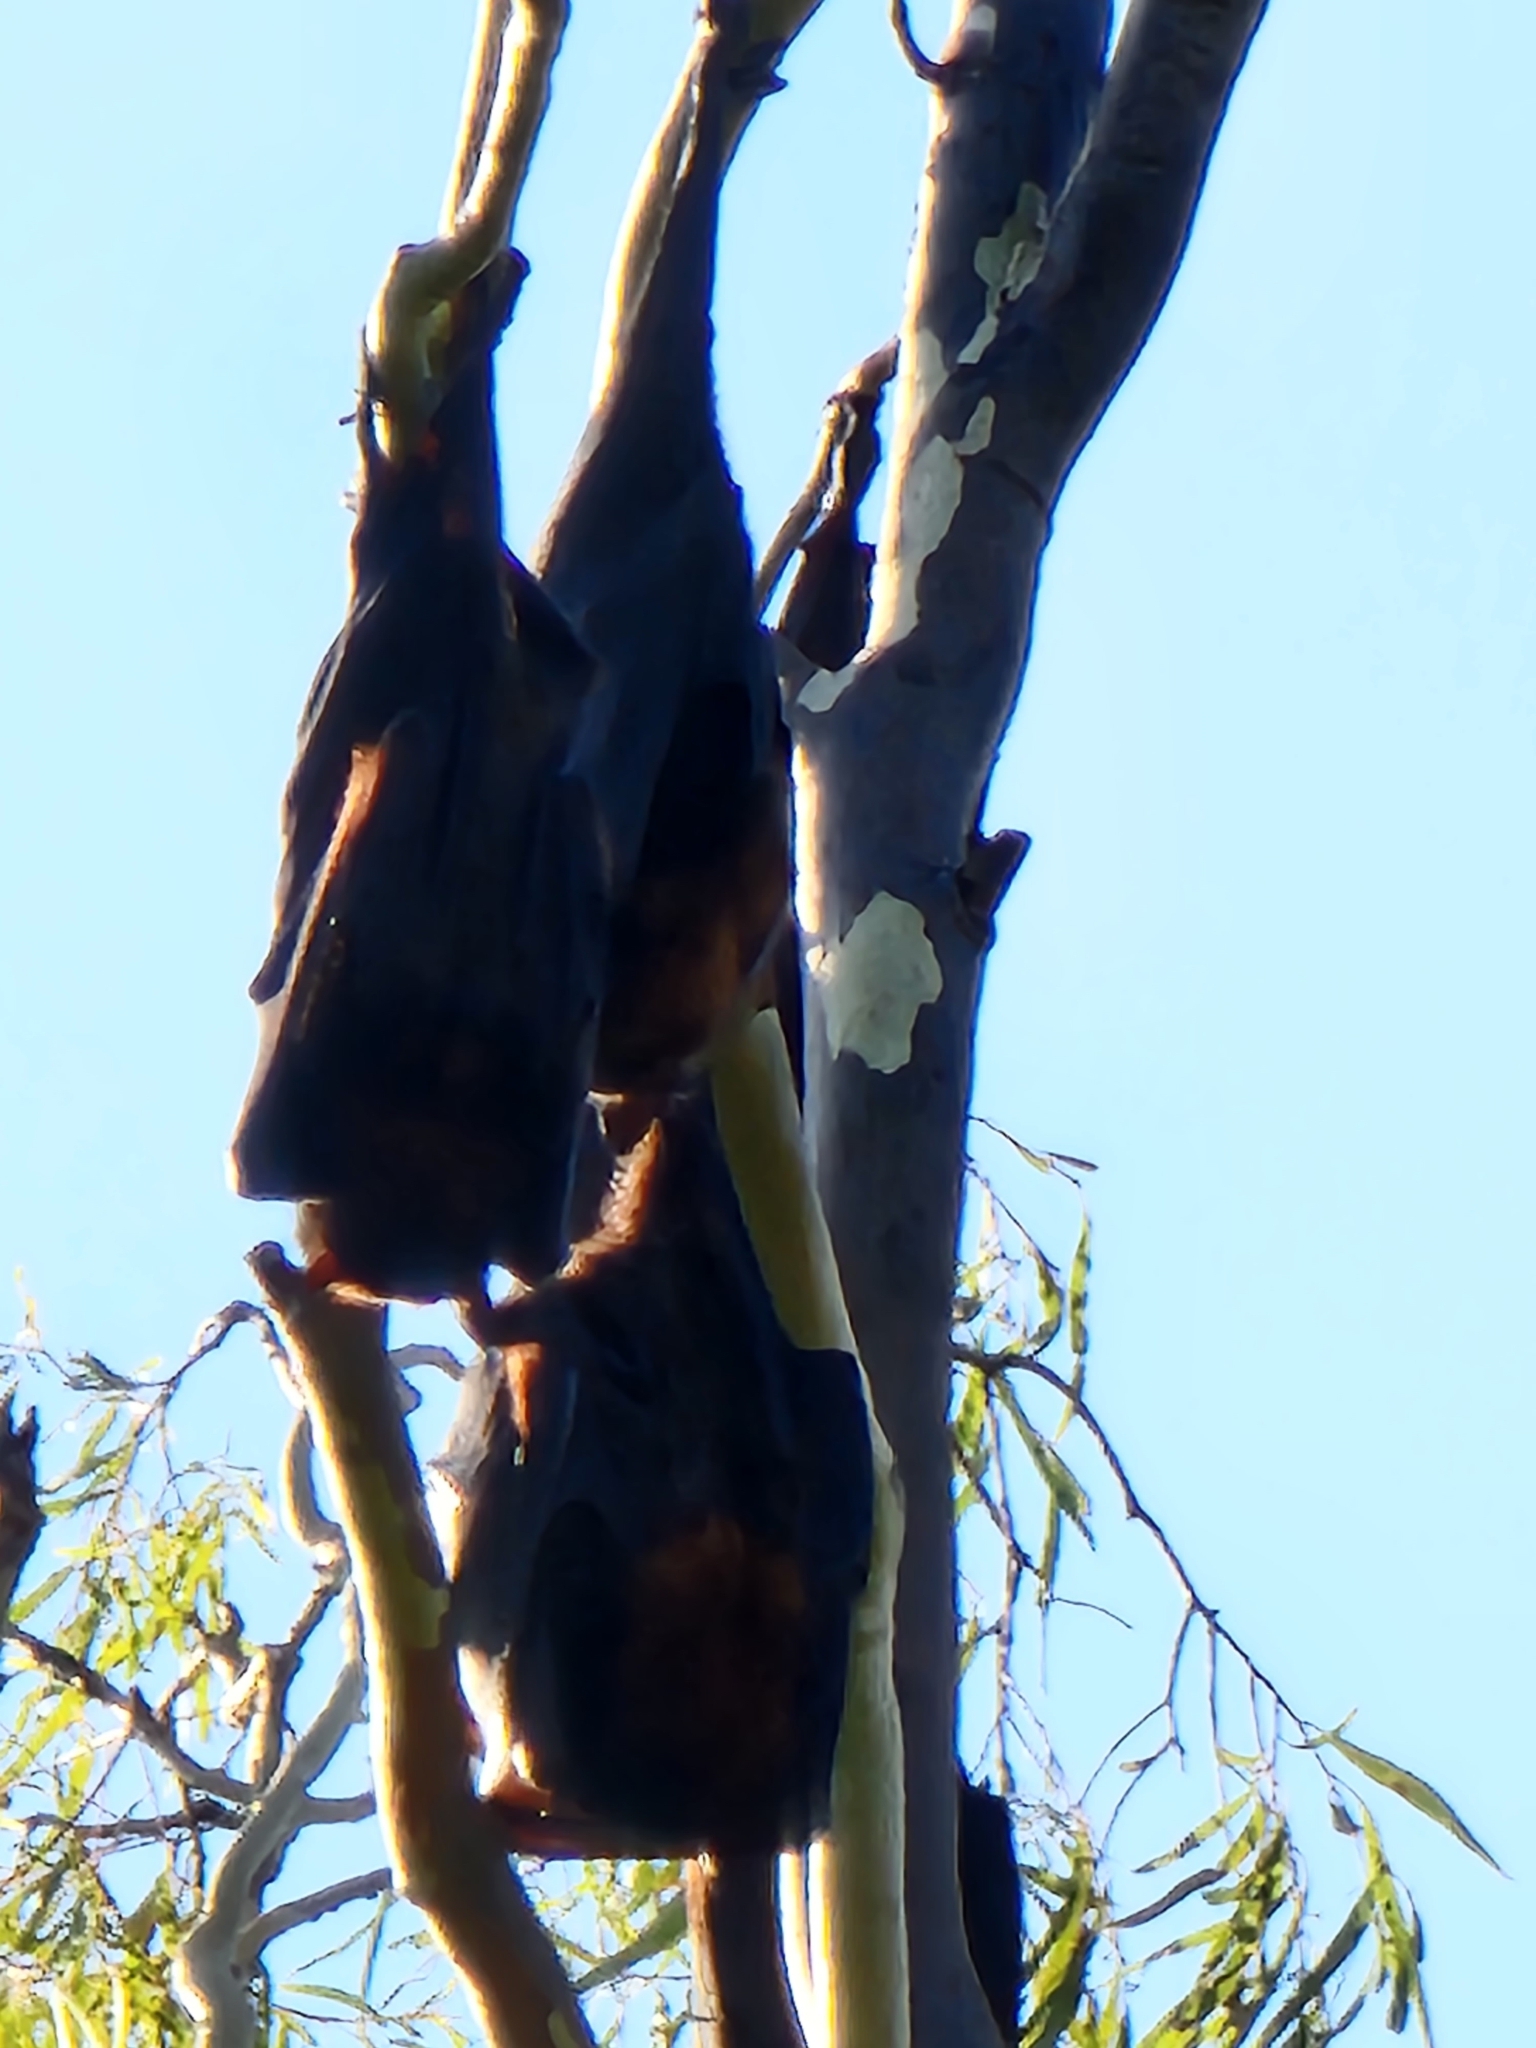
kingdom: Animalia
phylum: Chordata
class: Mammalia
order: Chiroptera
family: Pteropodidae
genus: Pteropus
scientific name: Pteropus alecto
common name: Black flying fox
